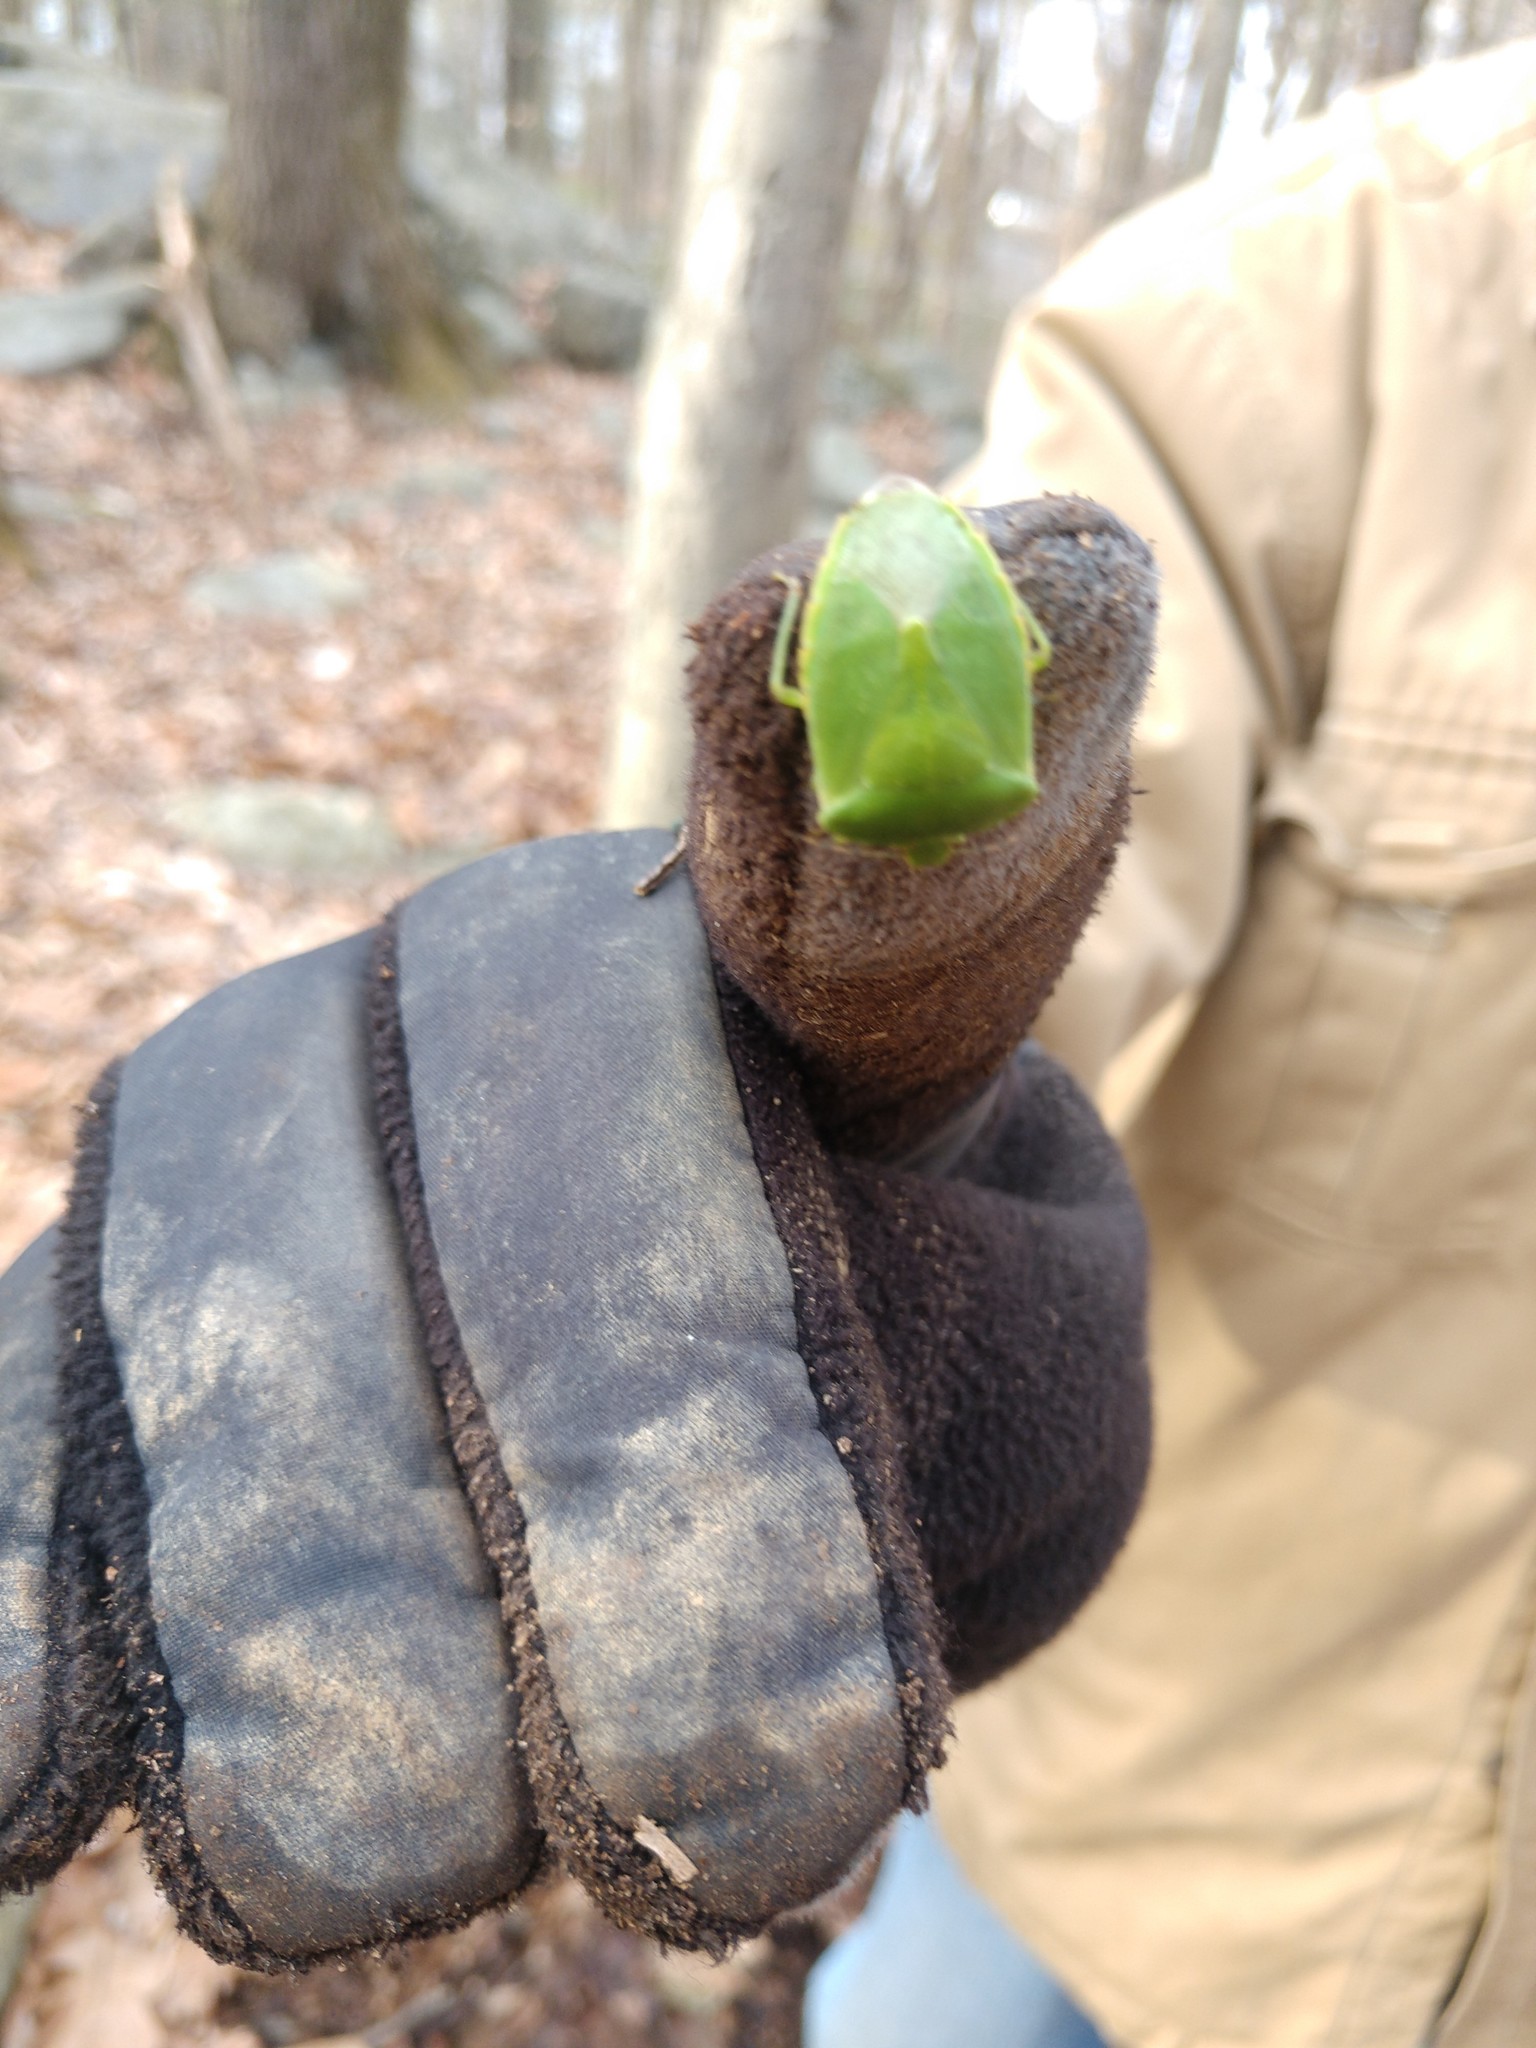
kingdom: Animalia
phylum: Arthropoda
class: Insecta
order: Hemiptera
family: Pentatomidae
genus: Chinavia
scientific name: Chinavia hilaris
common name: Green stink bug
